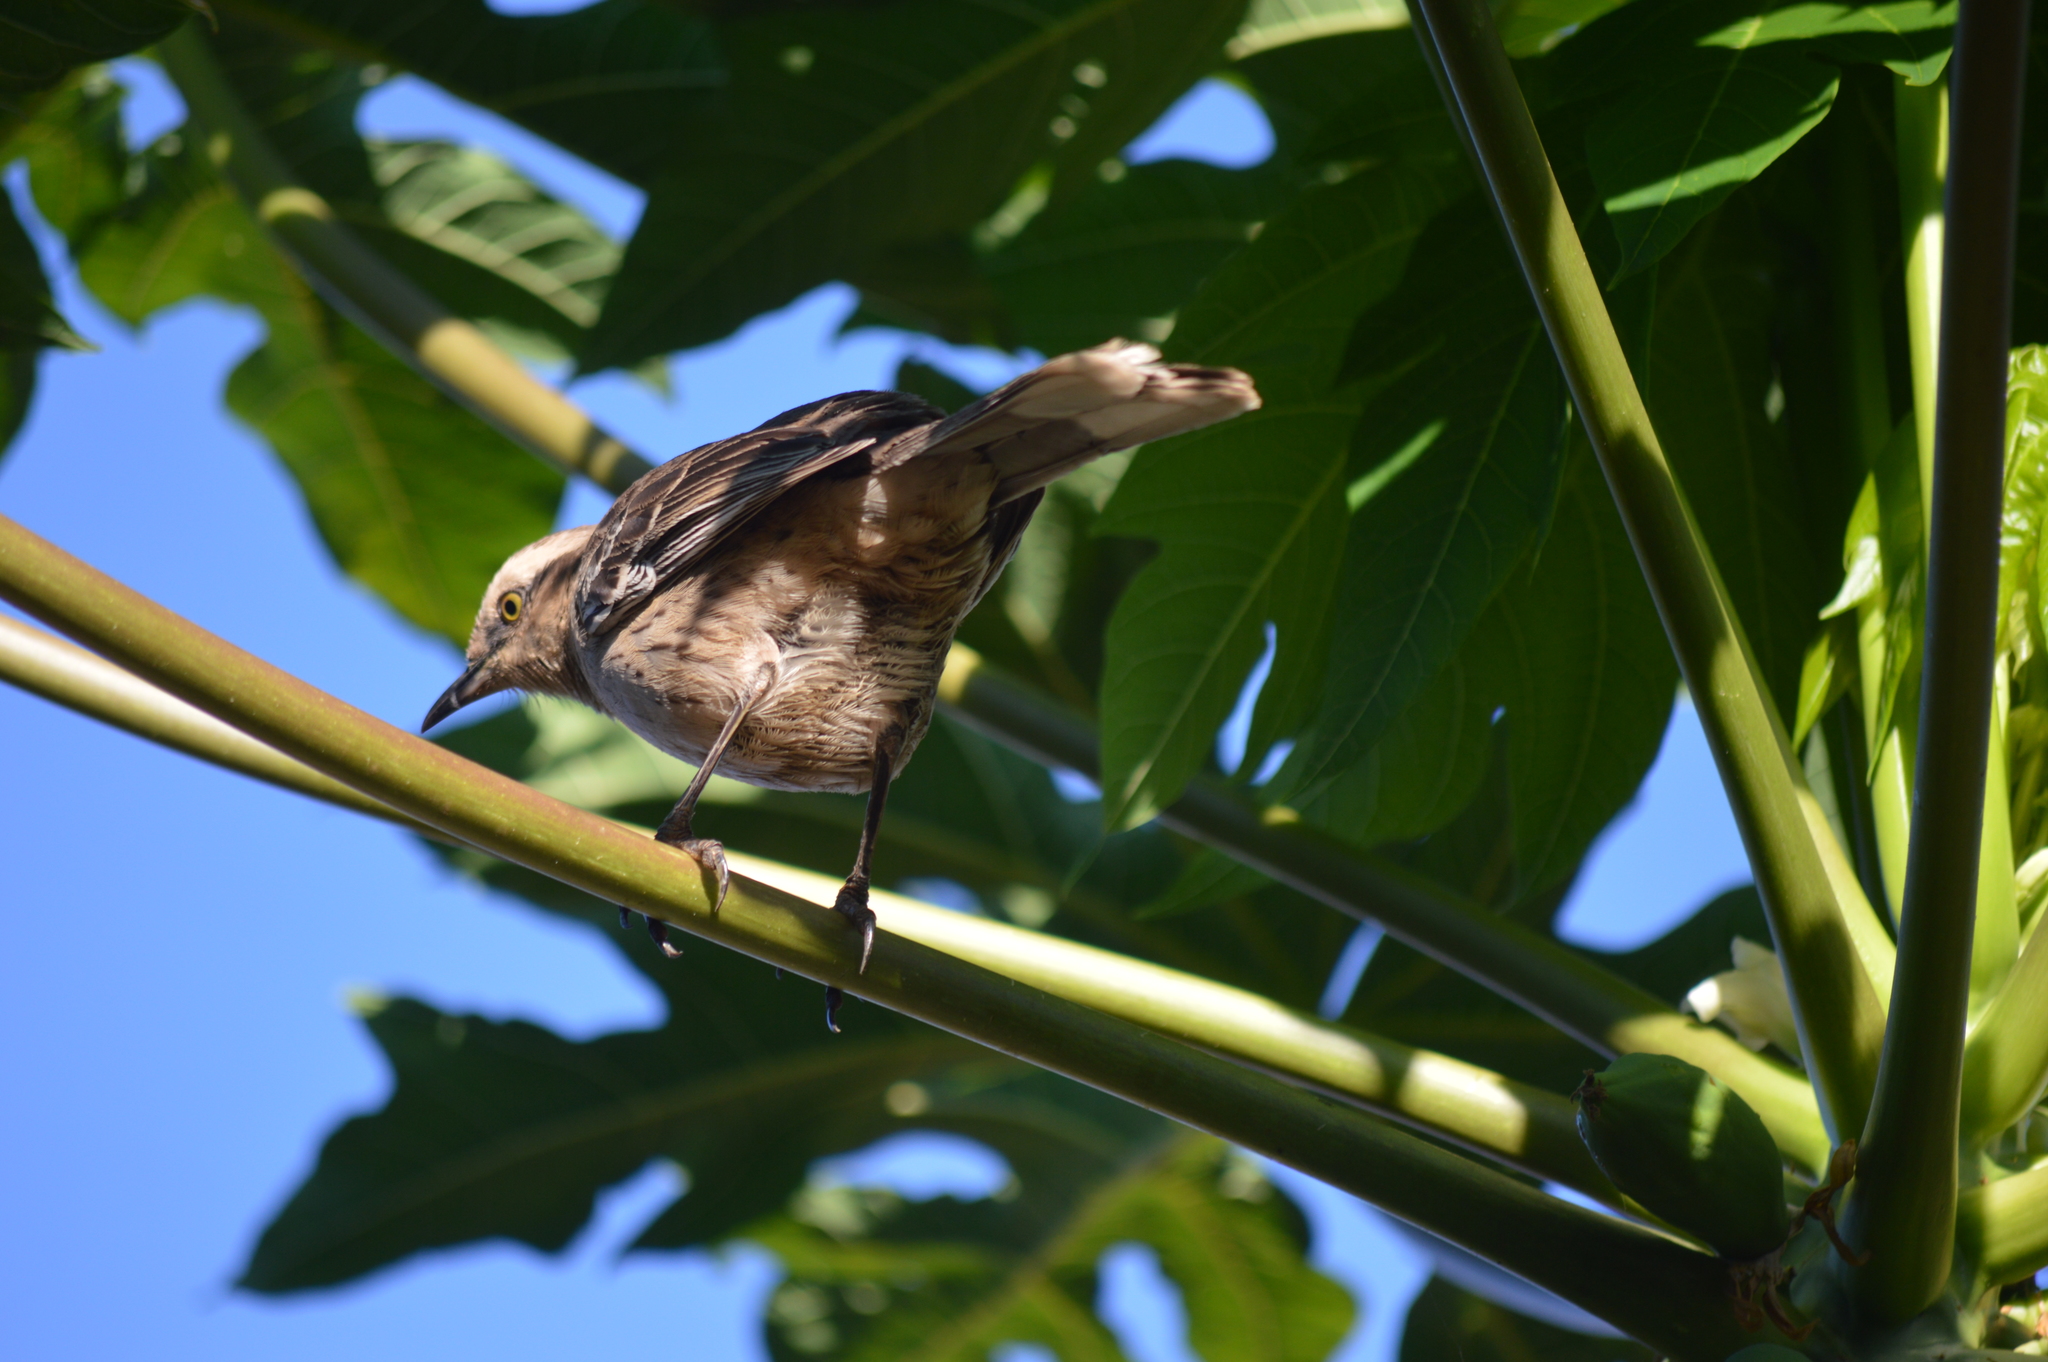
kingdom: Animalia
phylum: Chordata
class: Aves
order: Passeriformes
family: Mimidae
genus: Mimus
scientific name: Mimus saturninus
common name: Chalk-browed mockingbird
